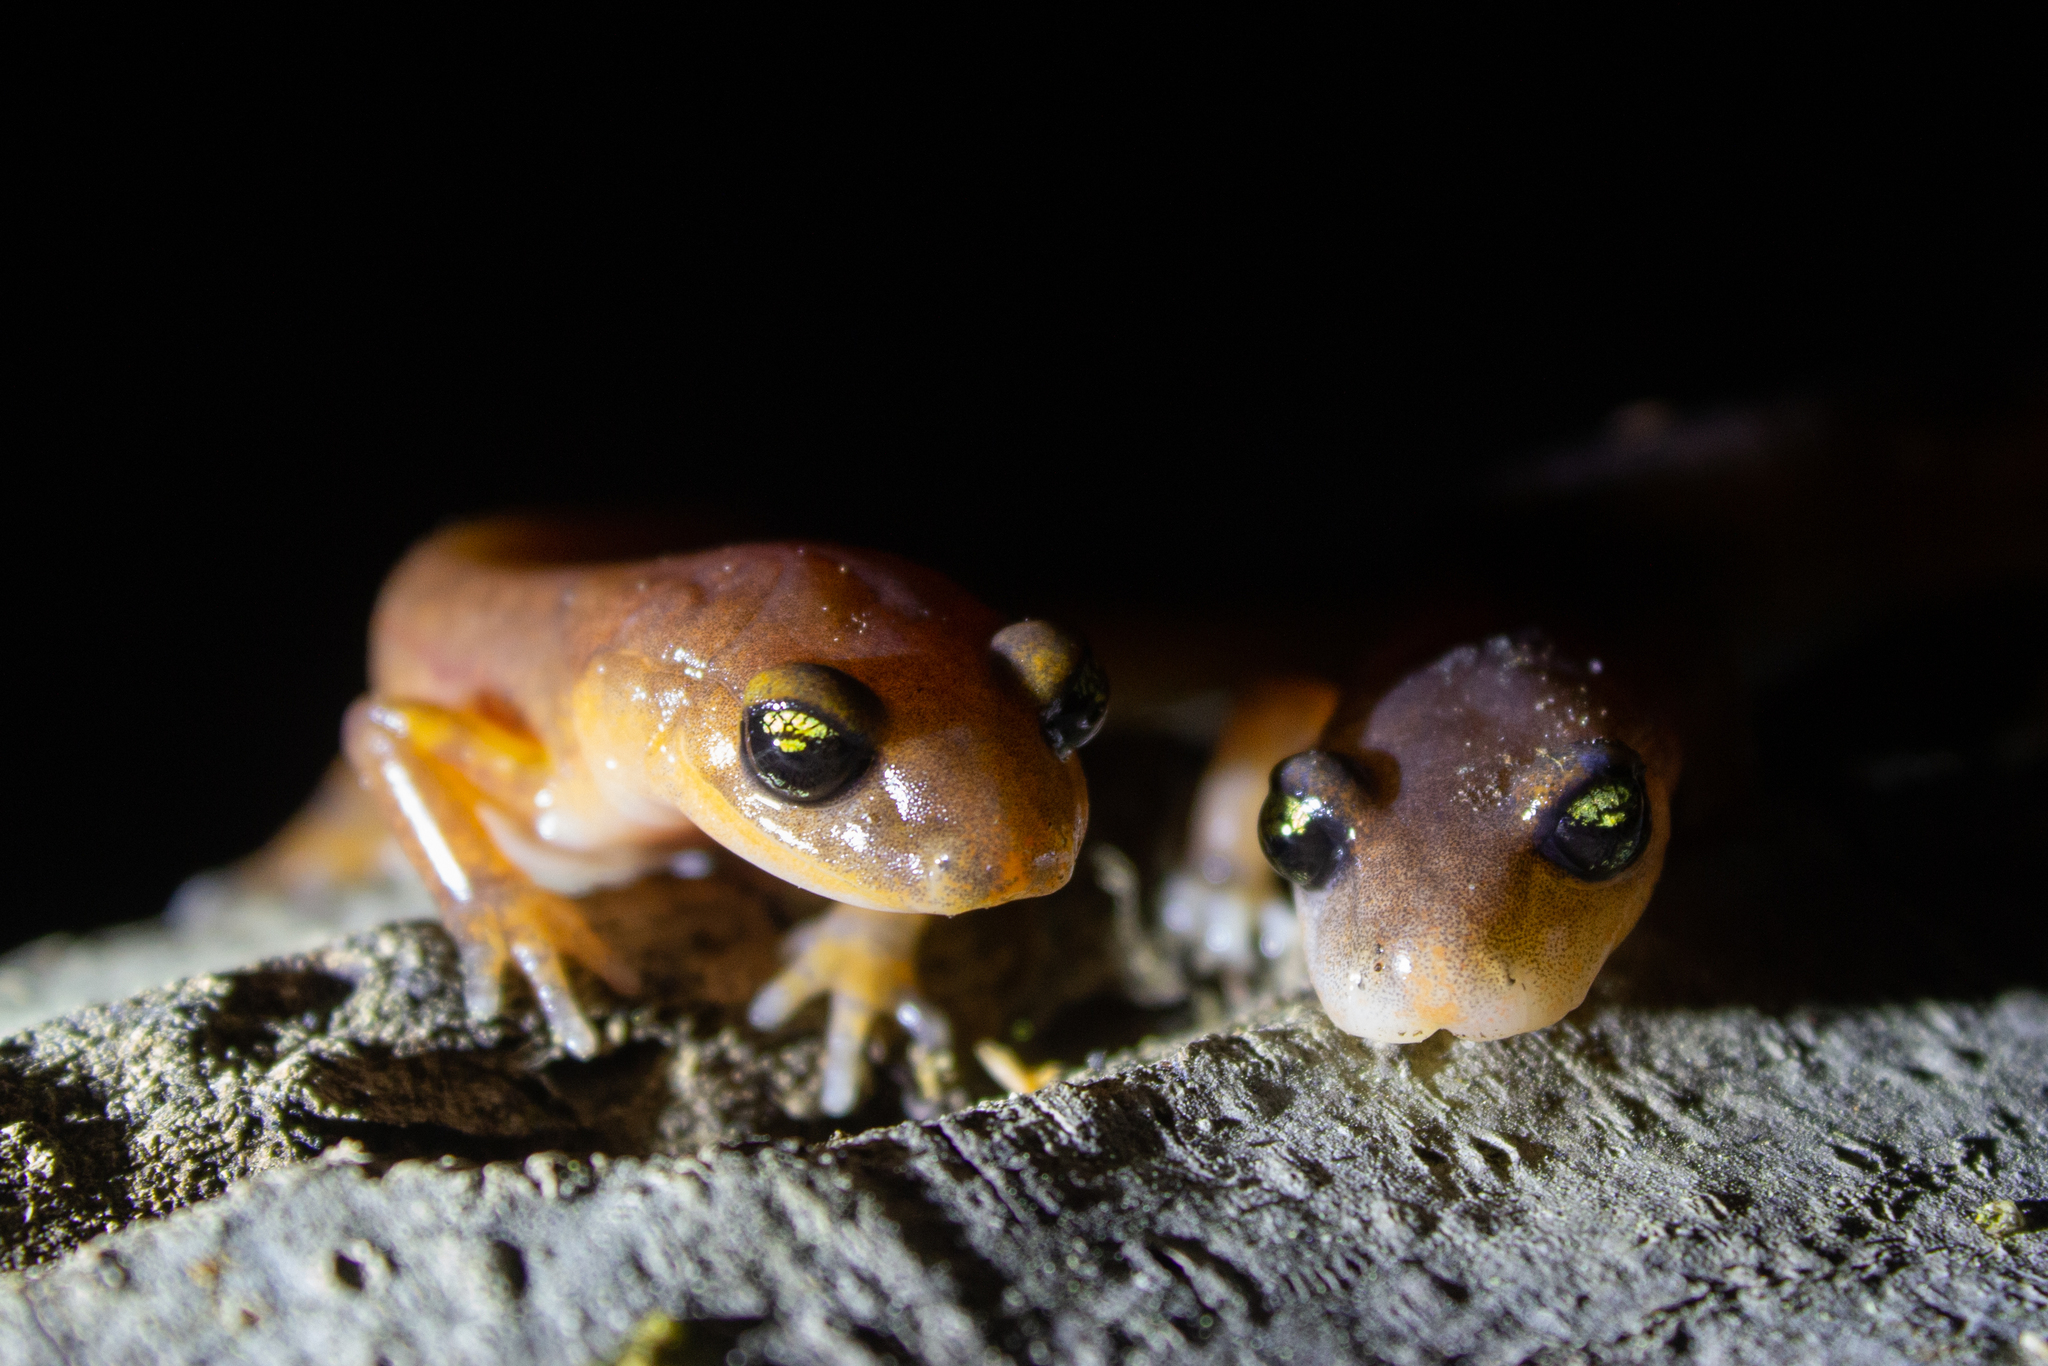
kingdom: Animalia
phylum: Chordata
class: Amphibia
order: Caudata
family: Plethodontidae
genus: Ensatina
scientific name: Ensatina eschscholtzii
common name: Ensatina
